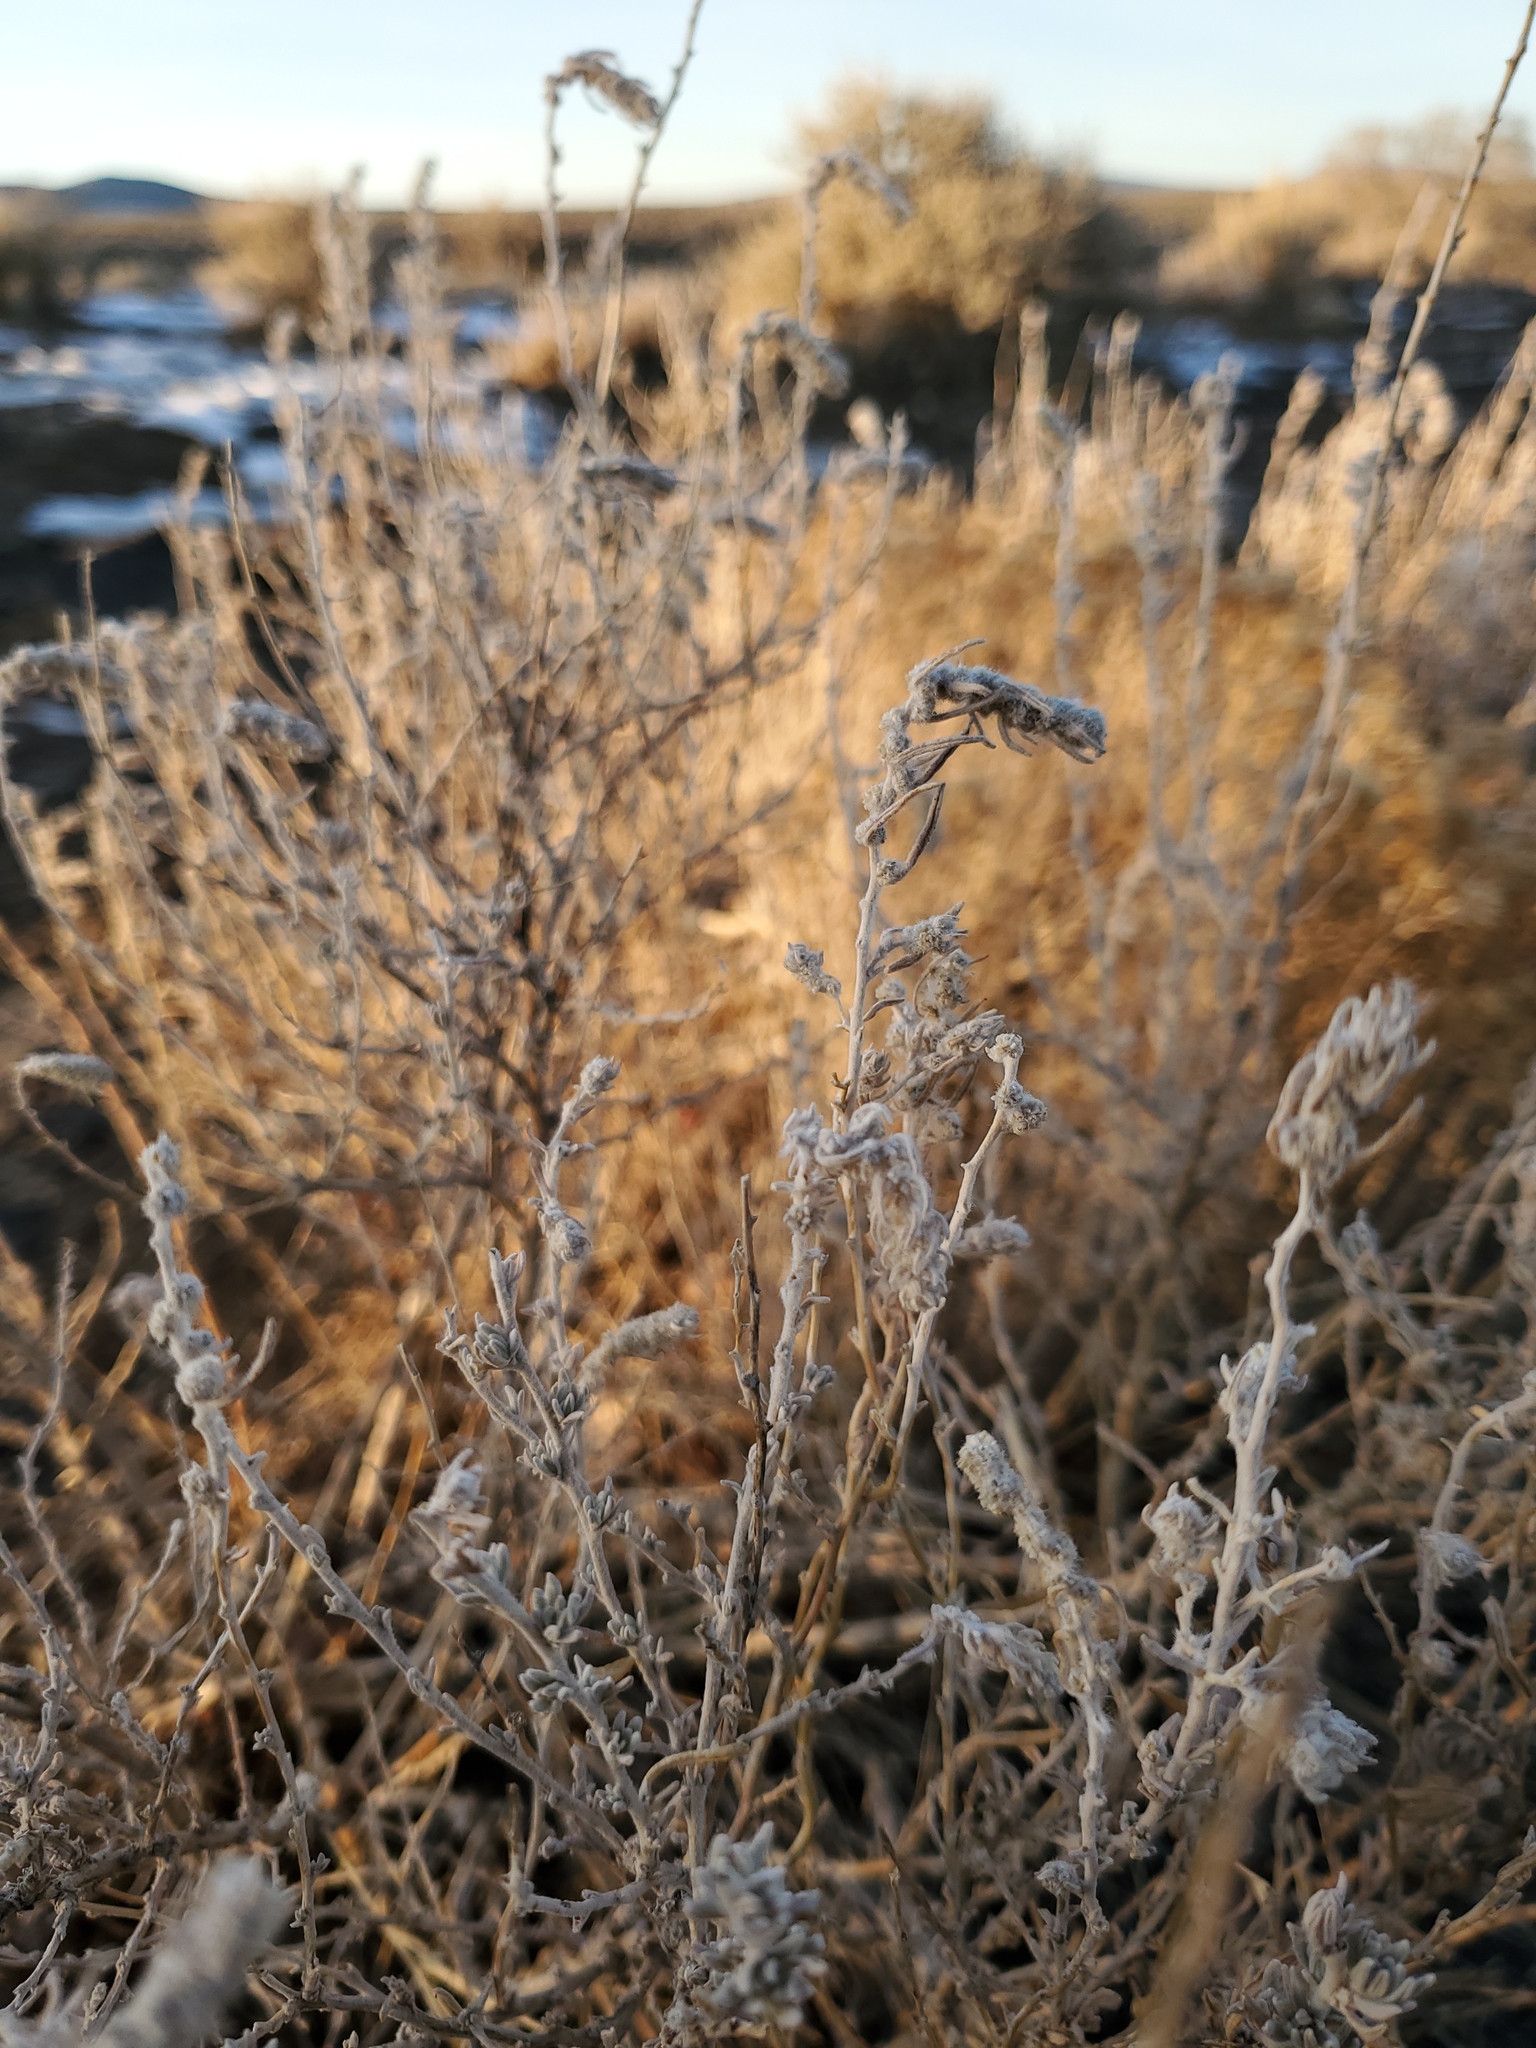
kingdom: Plantae
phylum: Tracheophyta
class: Magnoliopsida
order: Caryophyllales
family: Amaranthaceae
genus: Krascheninnikovia
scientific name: Krascheninnikovia lanata
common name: Winterfat
